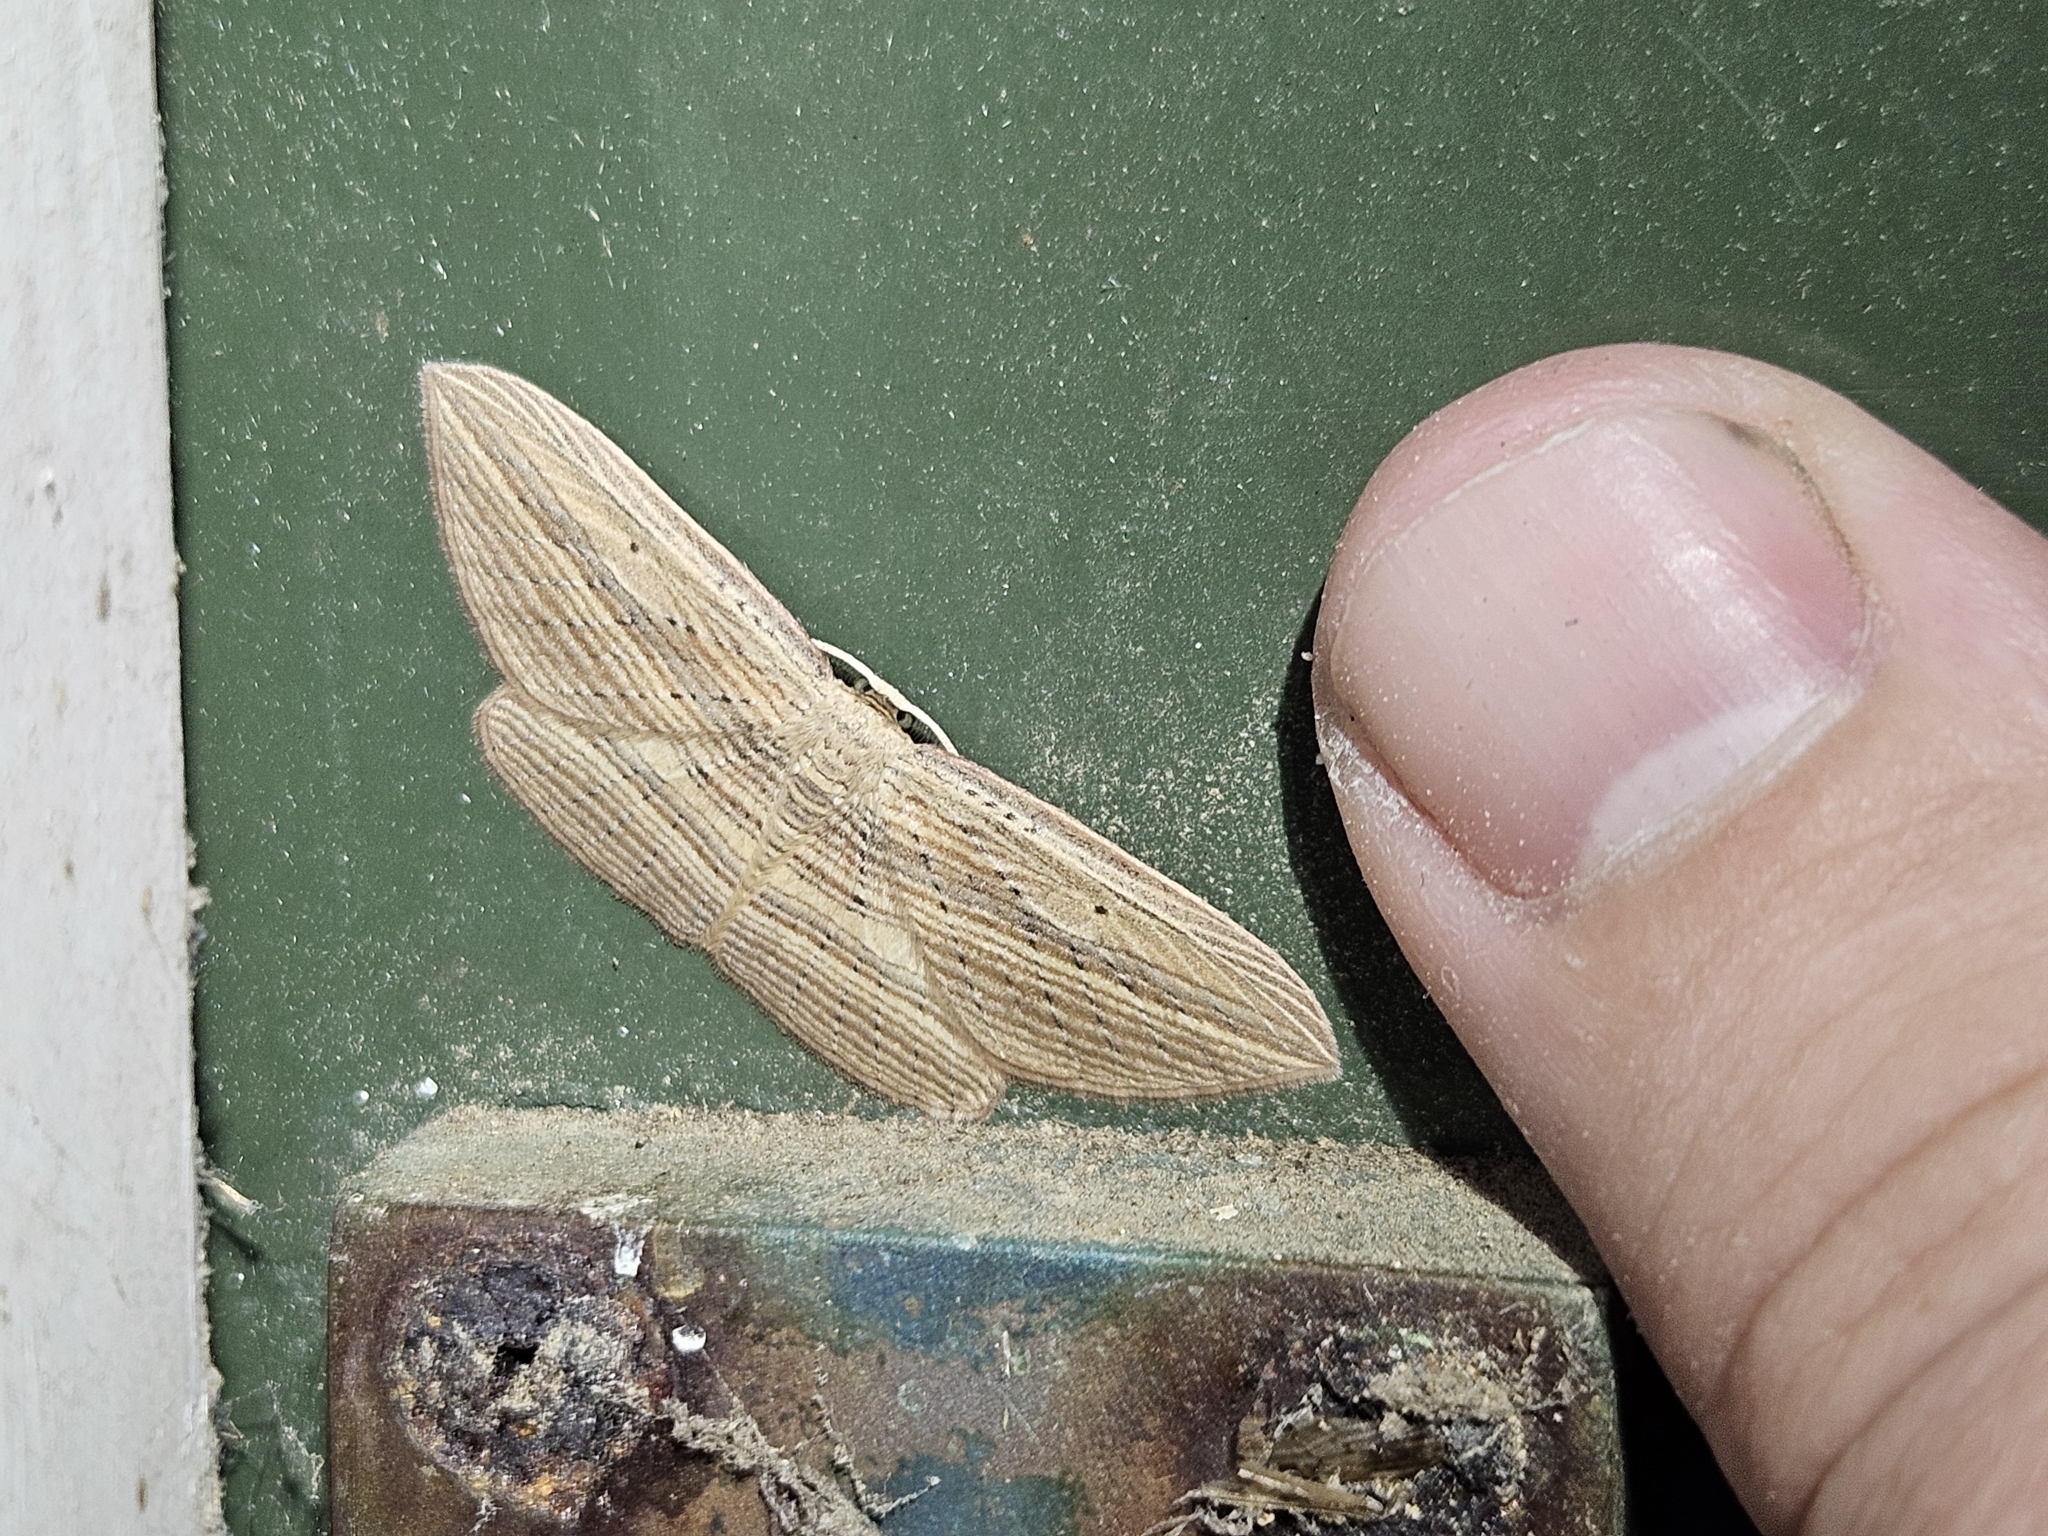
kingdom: Animalia
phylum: Arthropoda
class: Insecta
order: Lepidoptera
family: Geometridae
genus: Epiphryne
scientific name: Epiphryne verriculata
